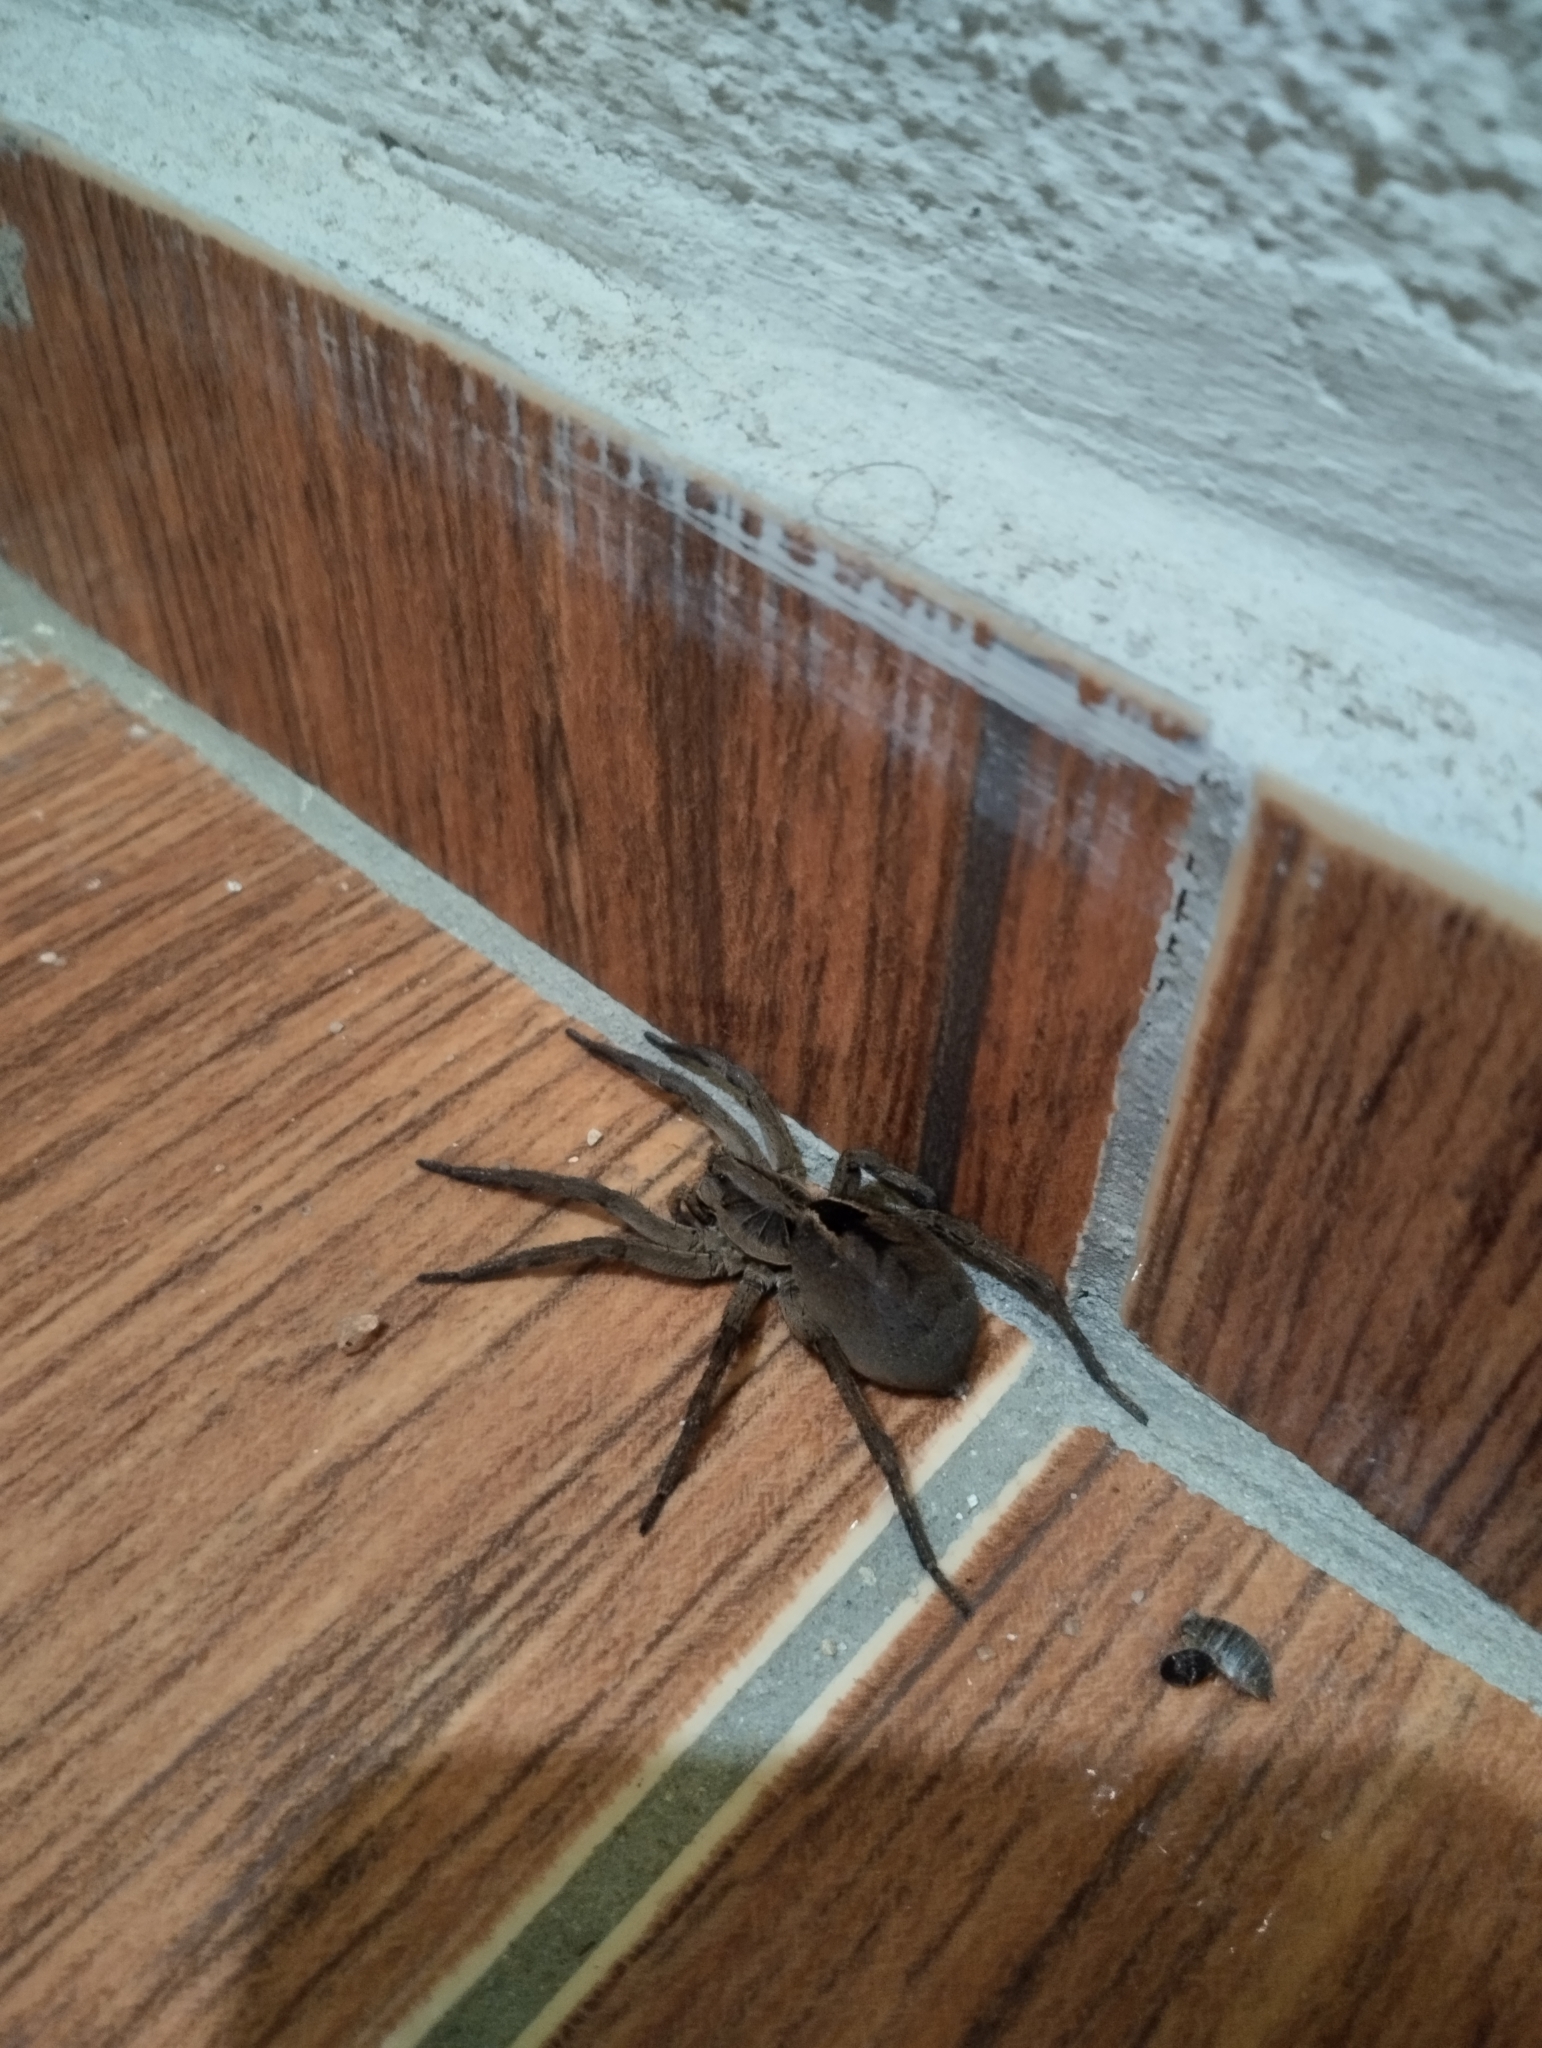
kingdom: Animalia
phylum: Arthropoda
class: Arachnida
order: Araneae
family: Lycosidae
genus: Lycosa
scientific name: Lycosa erythrognatha
